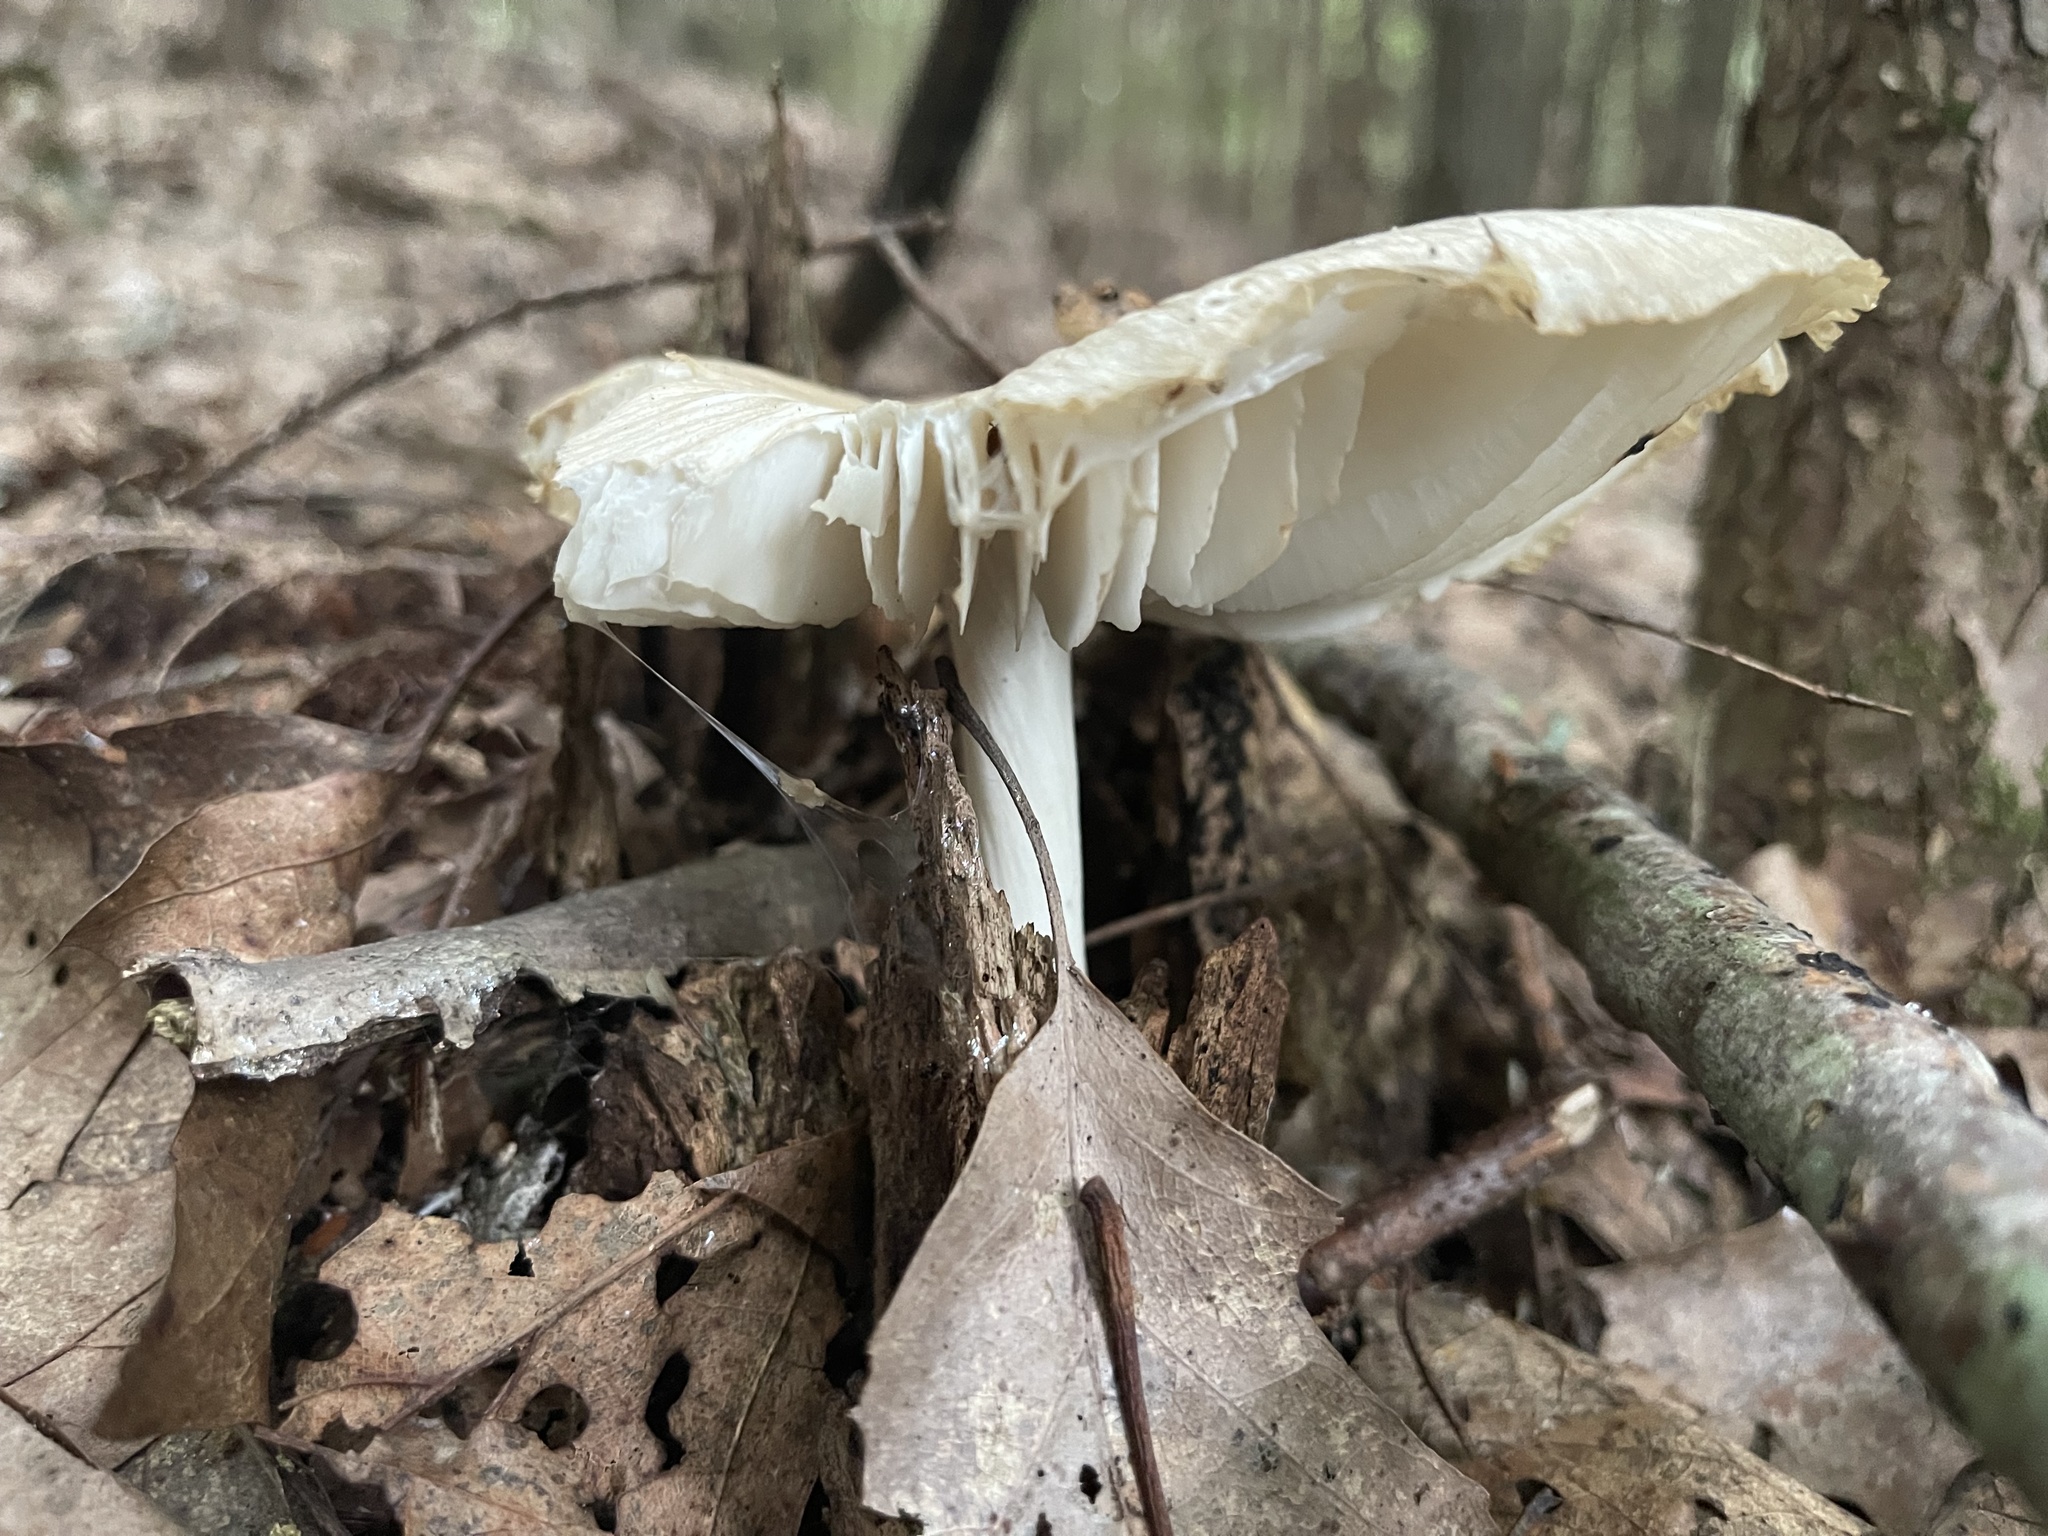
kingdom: Fungi
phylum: Basidiomycota
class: Agaricomycetes
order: Agaricales
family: Tricholomataceae
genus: Megacollybia
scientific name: Megacollybia rodmanii
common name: Eastern american platterful mushroom
